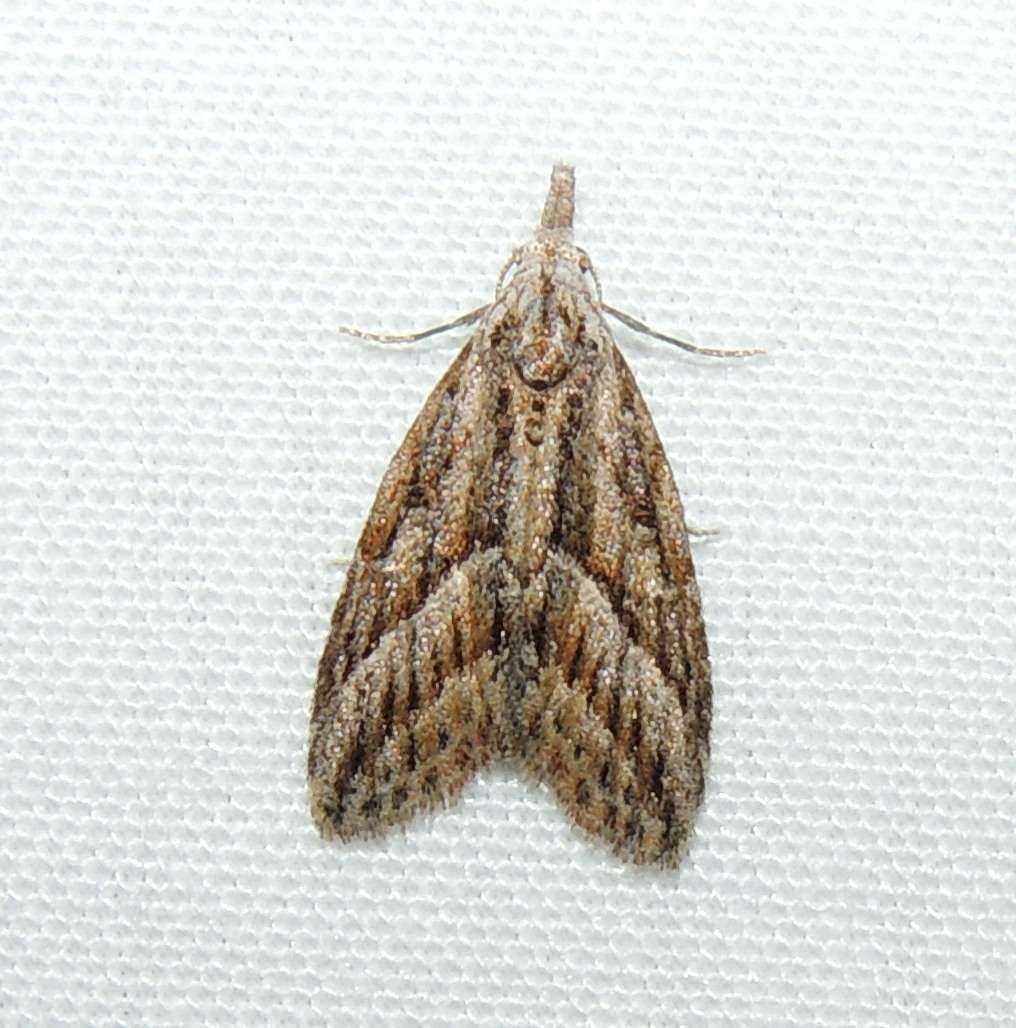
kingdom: Animalia
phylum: Arthropoda
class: Insecta
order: Lepidoptera
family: Nolidae
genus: Nola
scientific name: Nola phaeogramma
